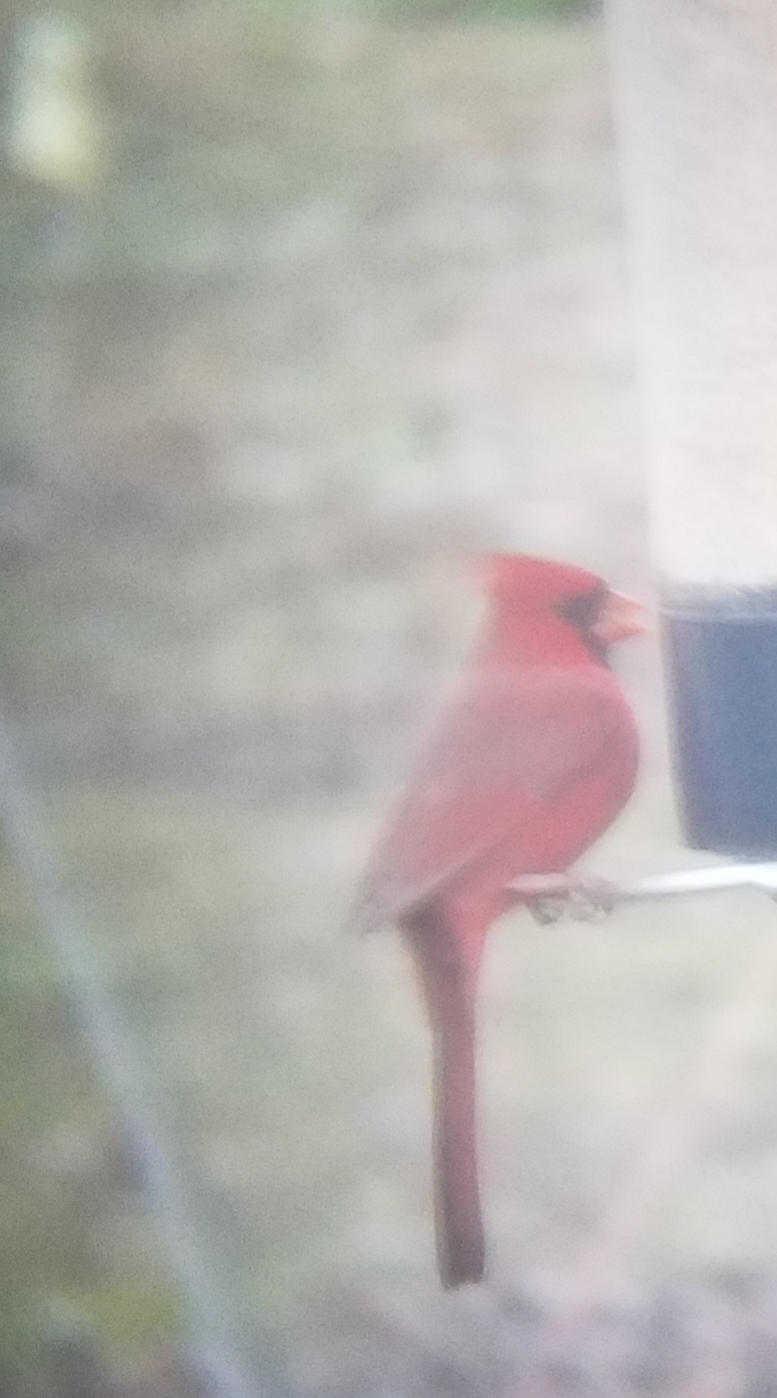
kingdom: Animalia
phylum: Chordata
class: Aves
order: Passeriformes
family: Cardinalidae
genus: Cardinalis
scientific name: Cardinalis cardinalis
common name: Northern cardinal
